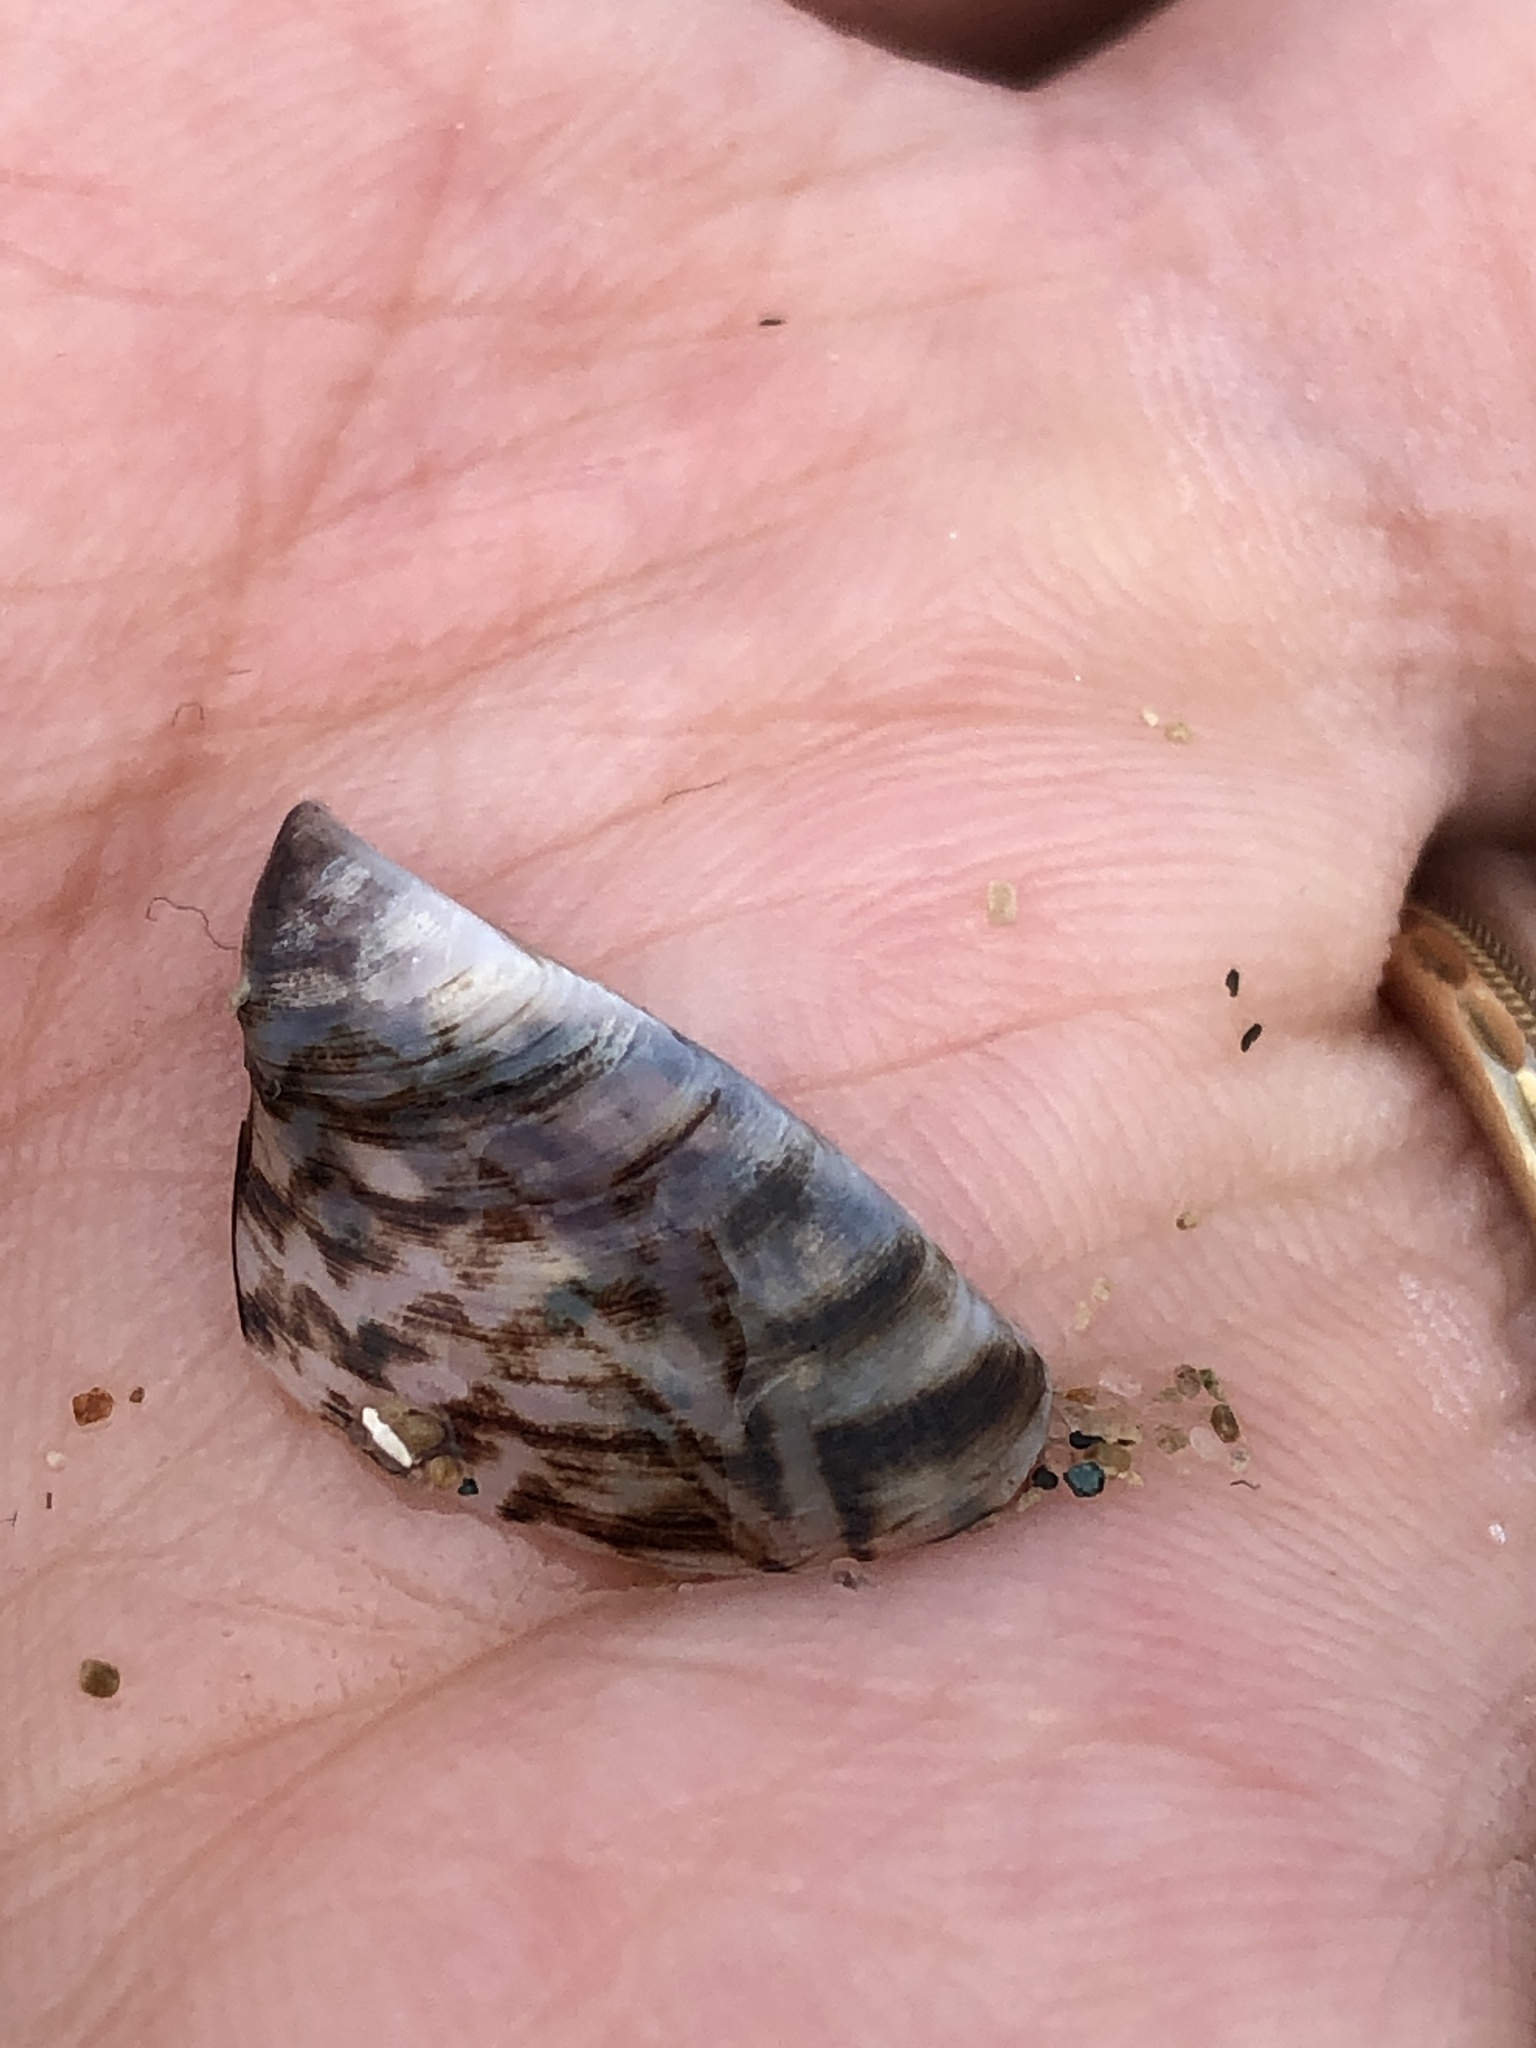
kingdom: Animalia
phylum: Mollusca
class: Bivalvia
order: Myida
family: Dreissenidae
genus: Dreissena
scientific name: Dreissena polymorpha
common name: Zebra mussel
